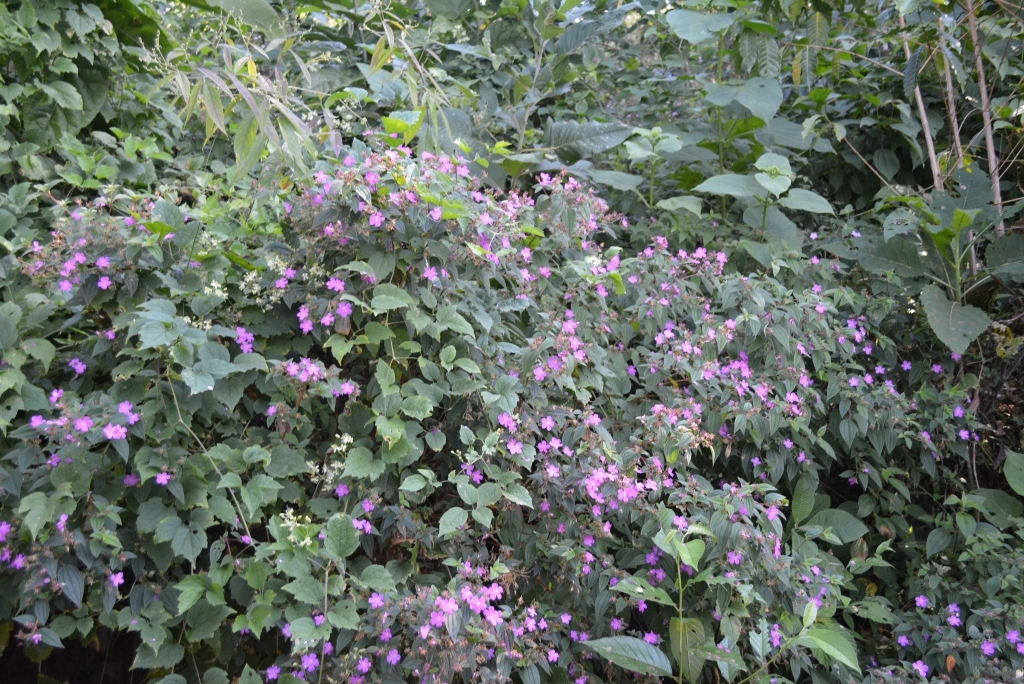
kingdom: Plantae
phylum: Tracheophyta
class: Magnoliopsida
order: Myrtales
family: Melastomataceae
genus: Chaetogastra
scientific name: Chaetogastra longisepala
